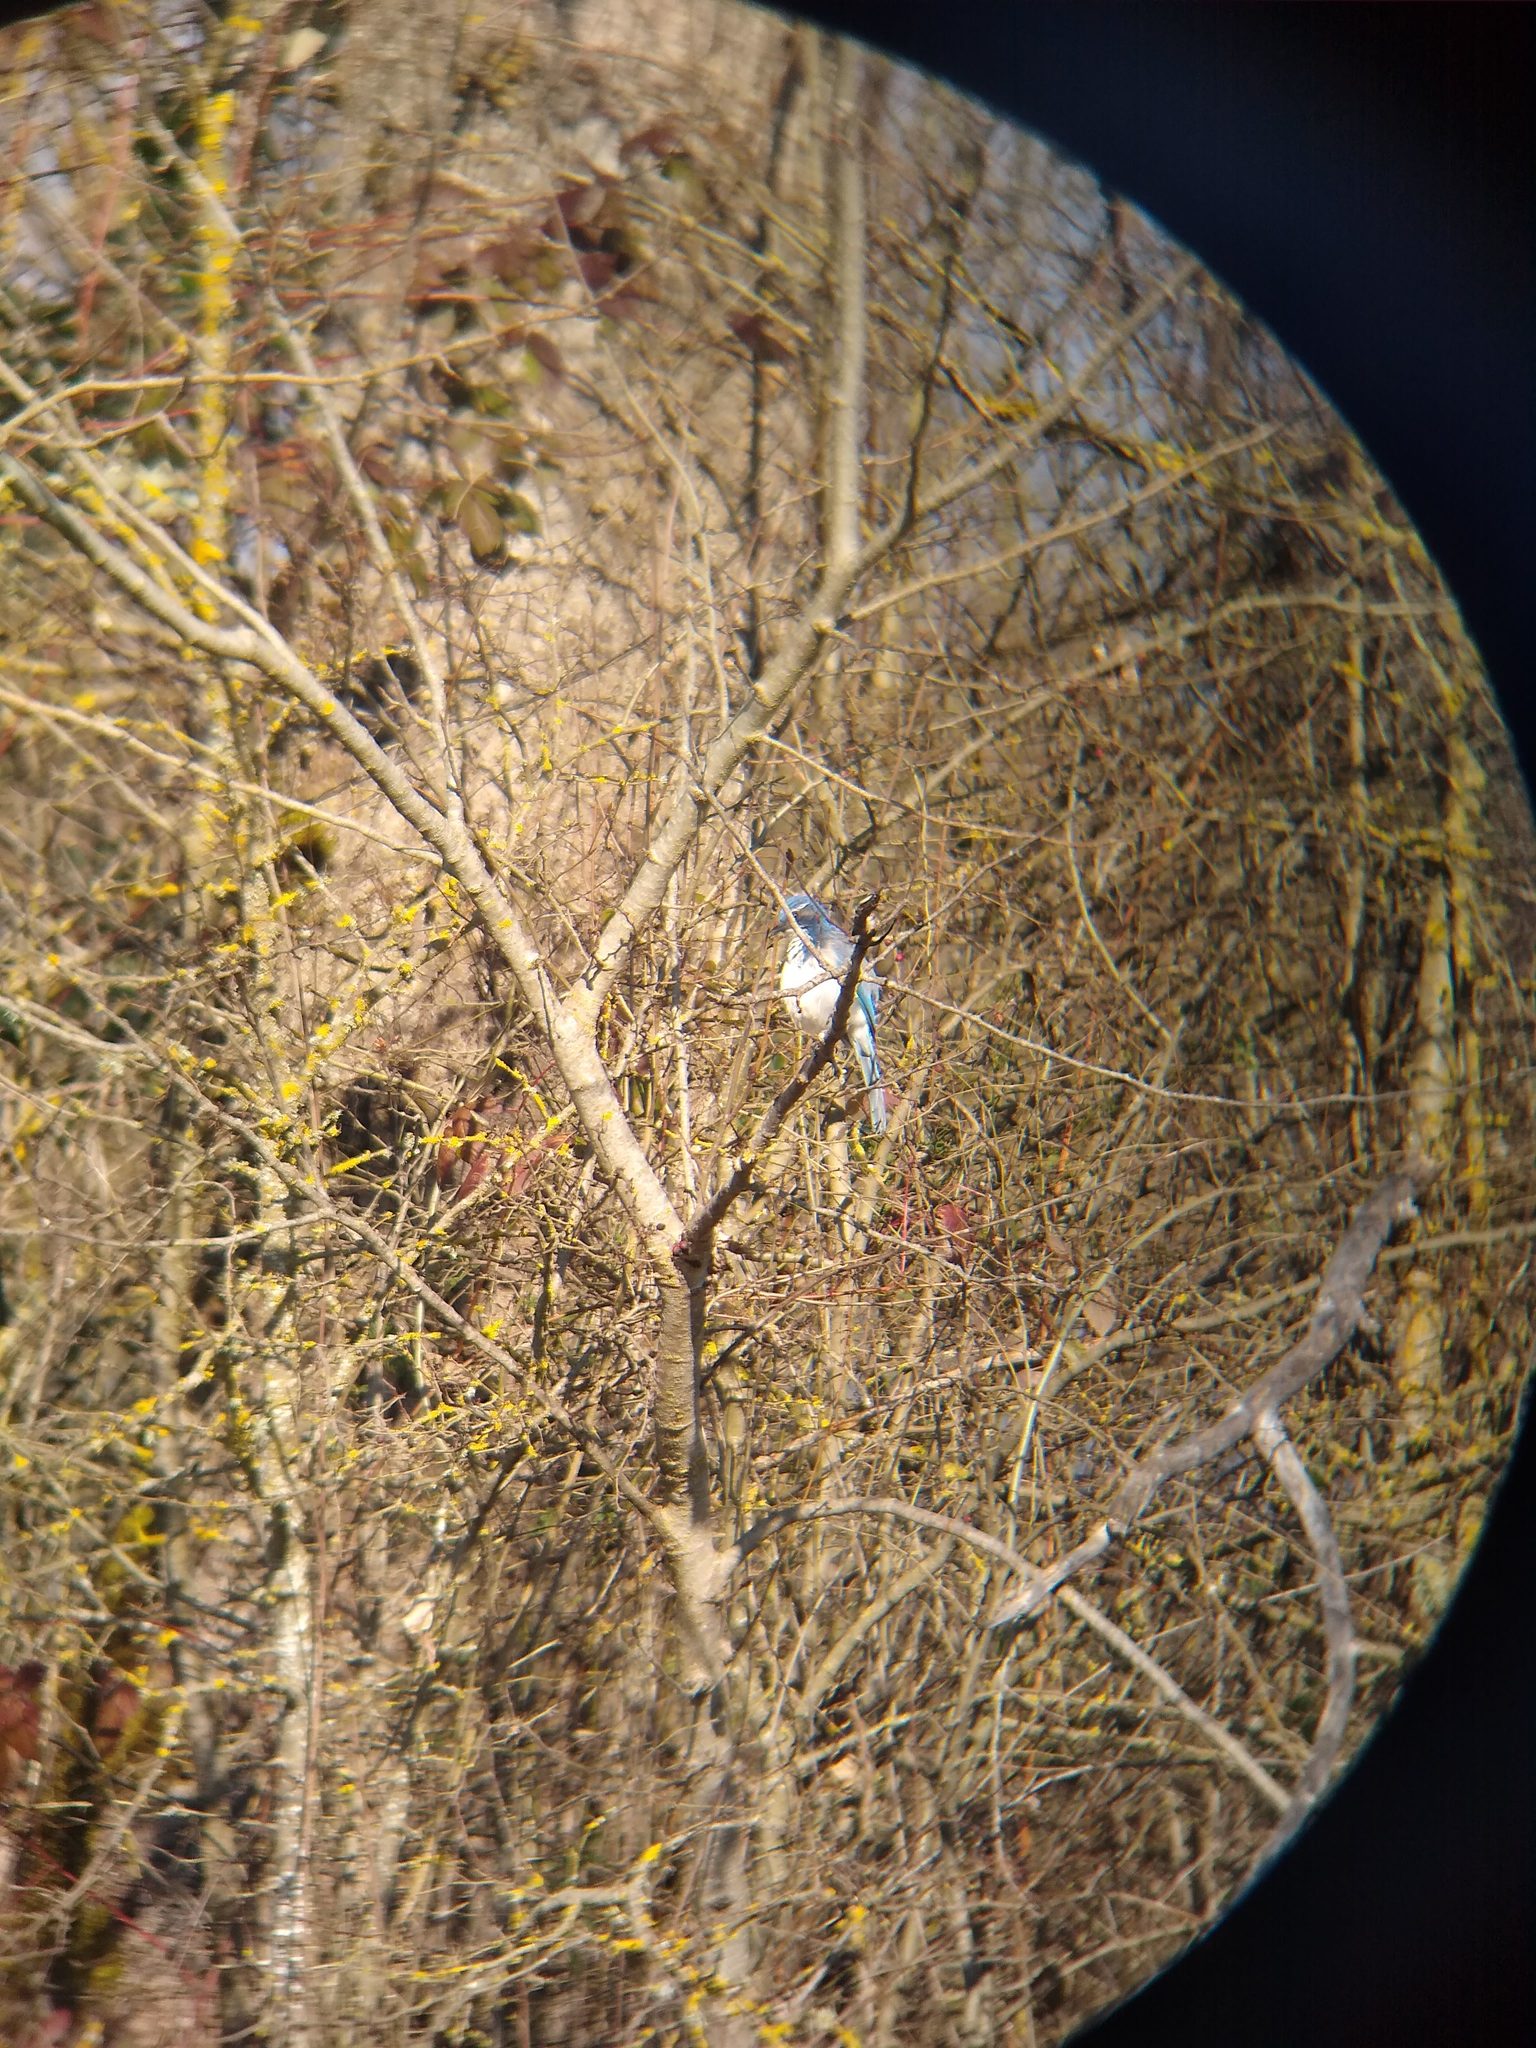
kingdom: Animalia
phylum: Chordata
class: Aves
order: Passeriformes
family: Corvidae
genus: Aphelocoma
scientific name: Aphelocoma californica
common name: California scrub-jay
